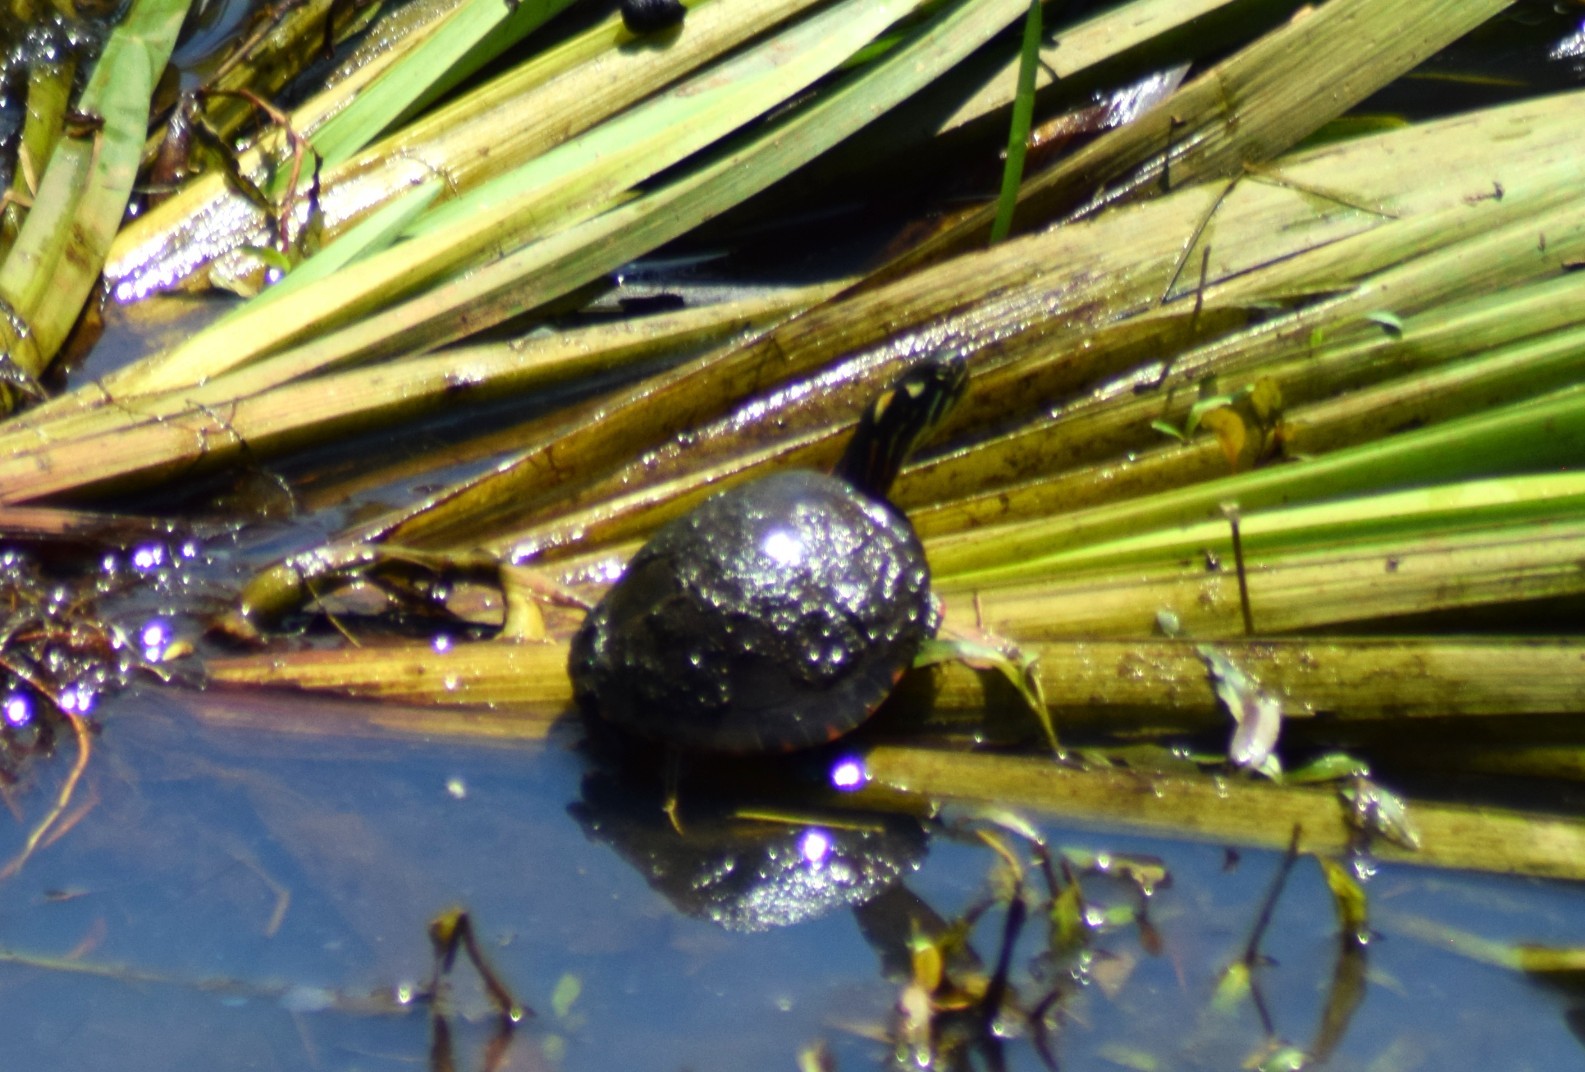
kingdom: Animalia
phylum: Chordata
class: Testudines
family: Emydidae
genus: Chrysemys
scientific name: Chrysemys picta
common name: Painted turtle
